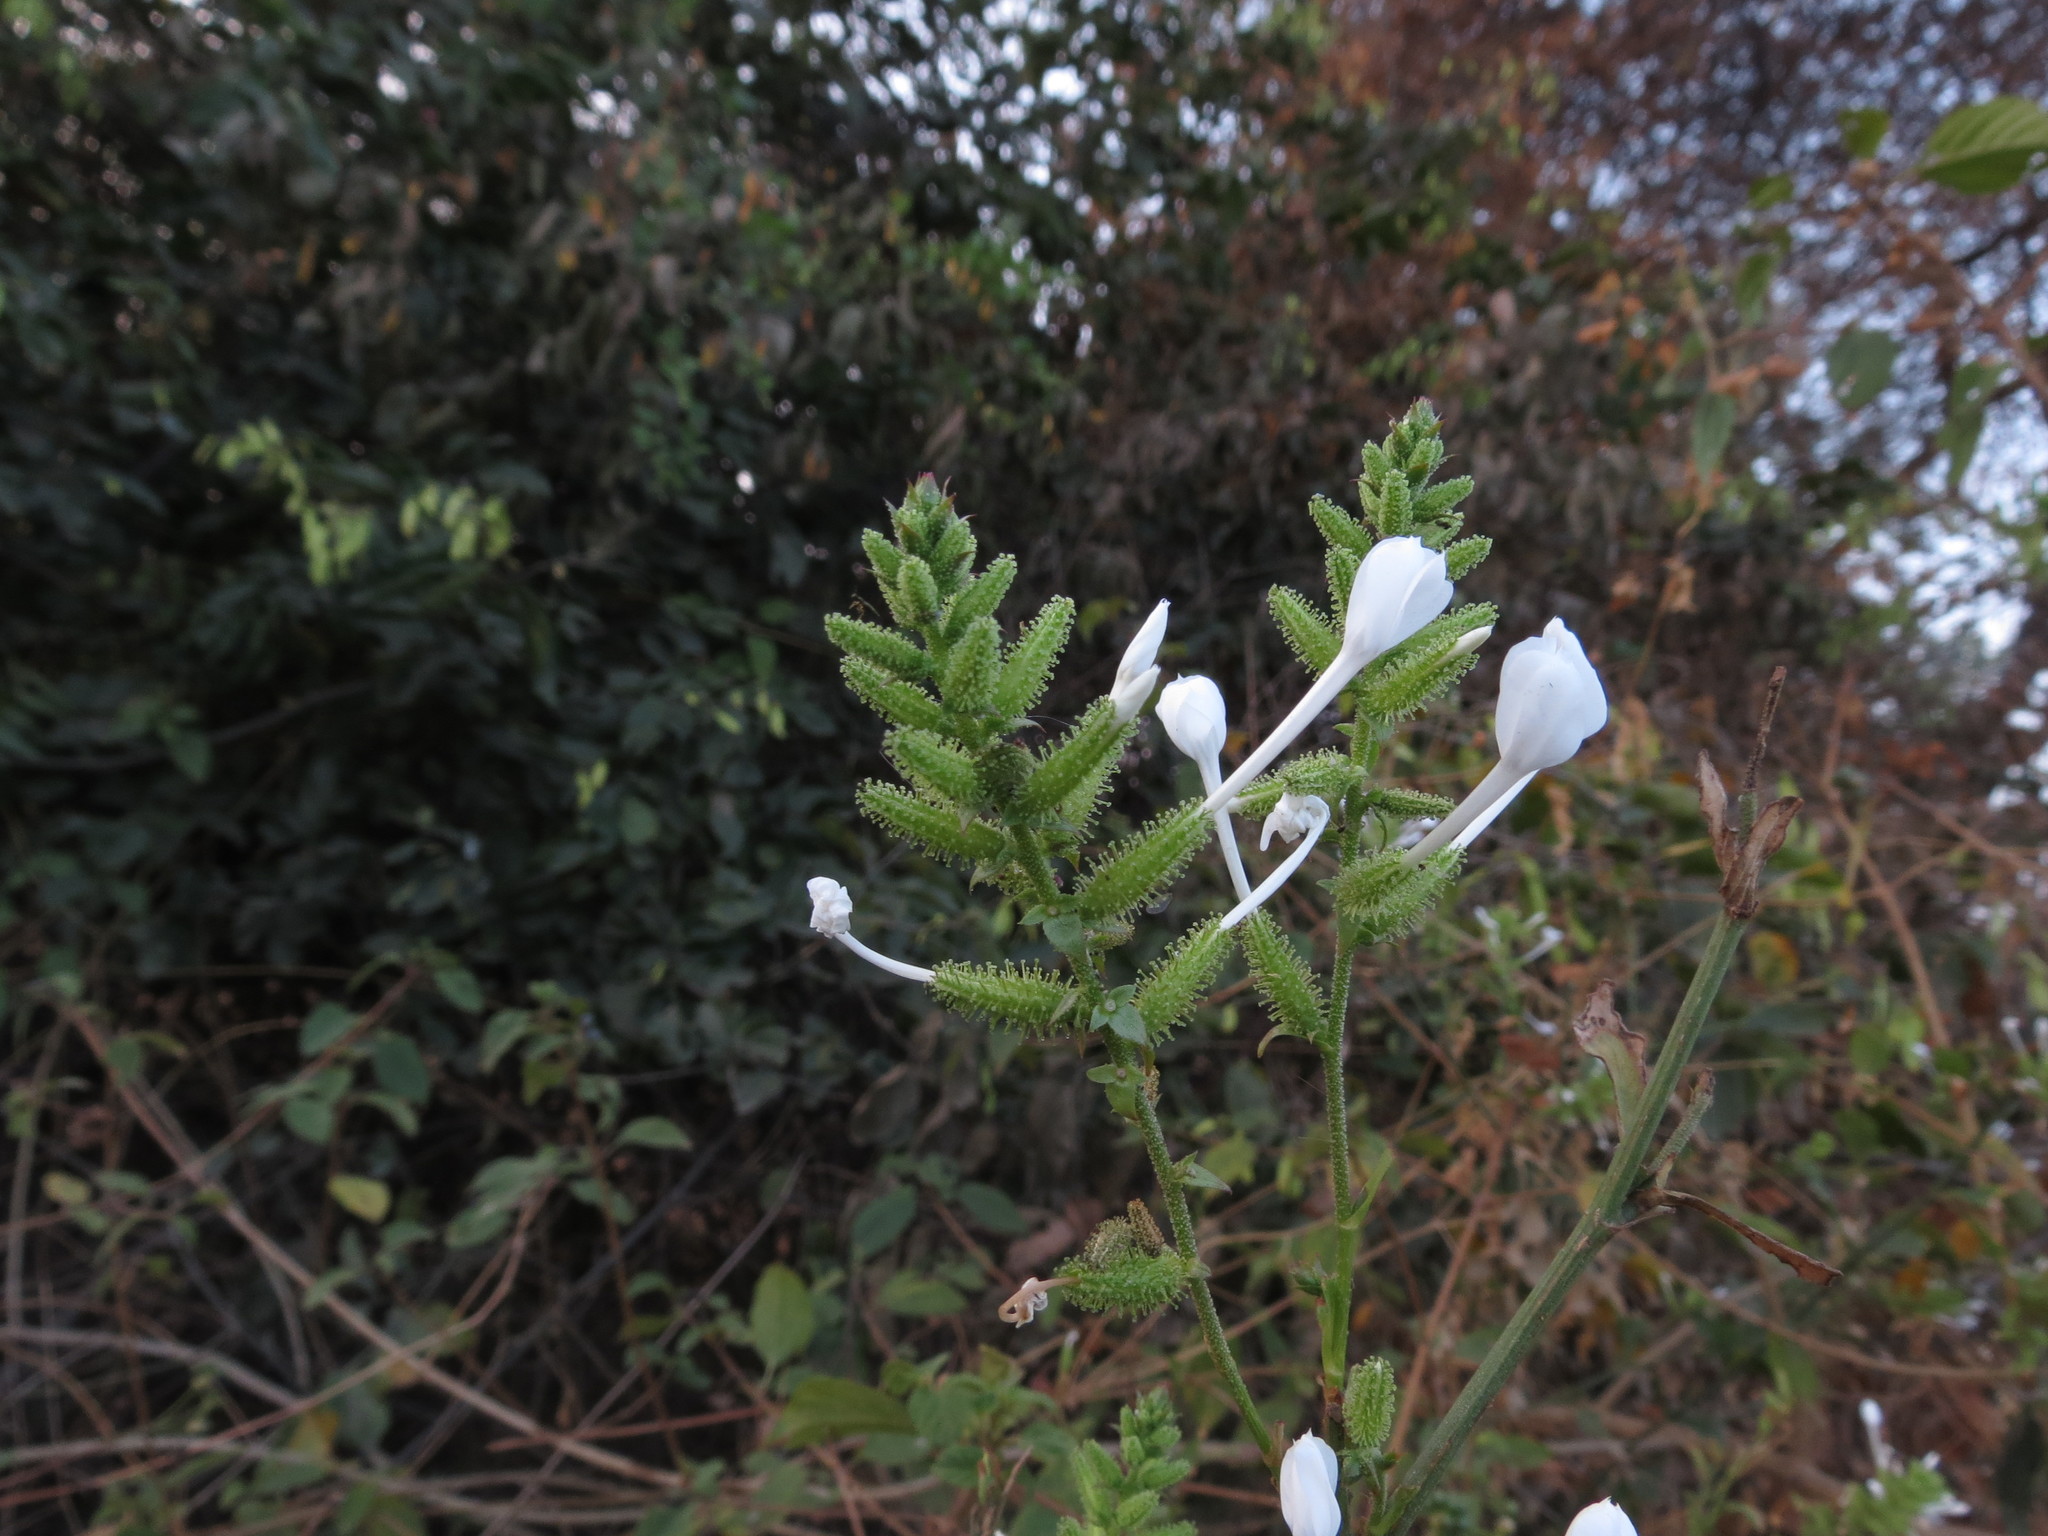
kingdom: Plantae
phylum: Tracheophyta
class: Magnoliopsida
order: Caryophyllales
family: Plumbaginaceae
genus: Plumbago
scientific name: Plumbago zeylanica
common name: Doctorbush
